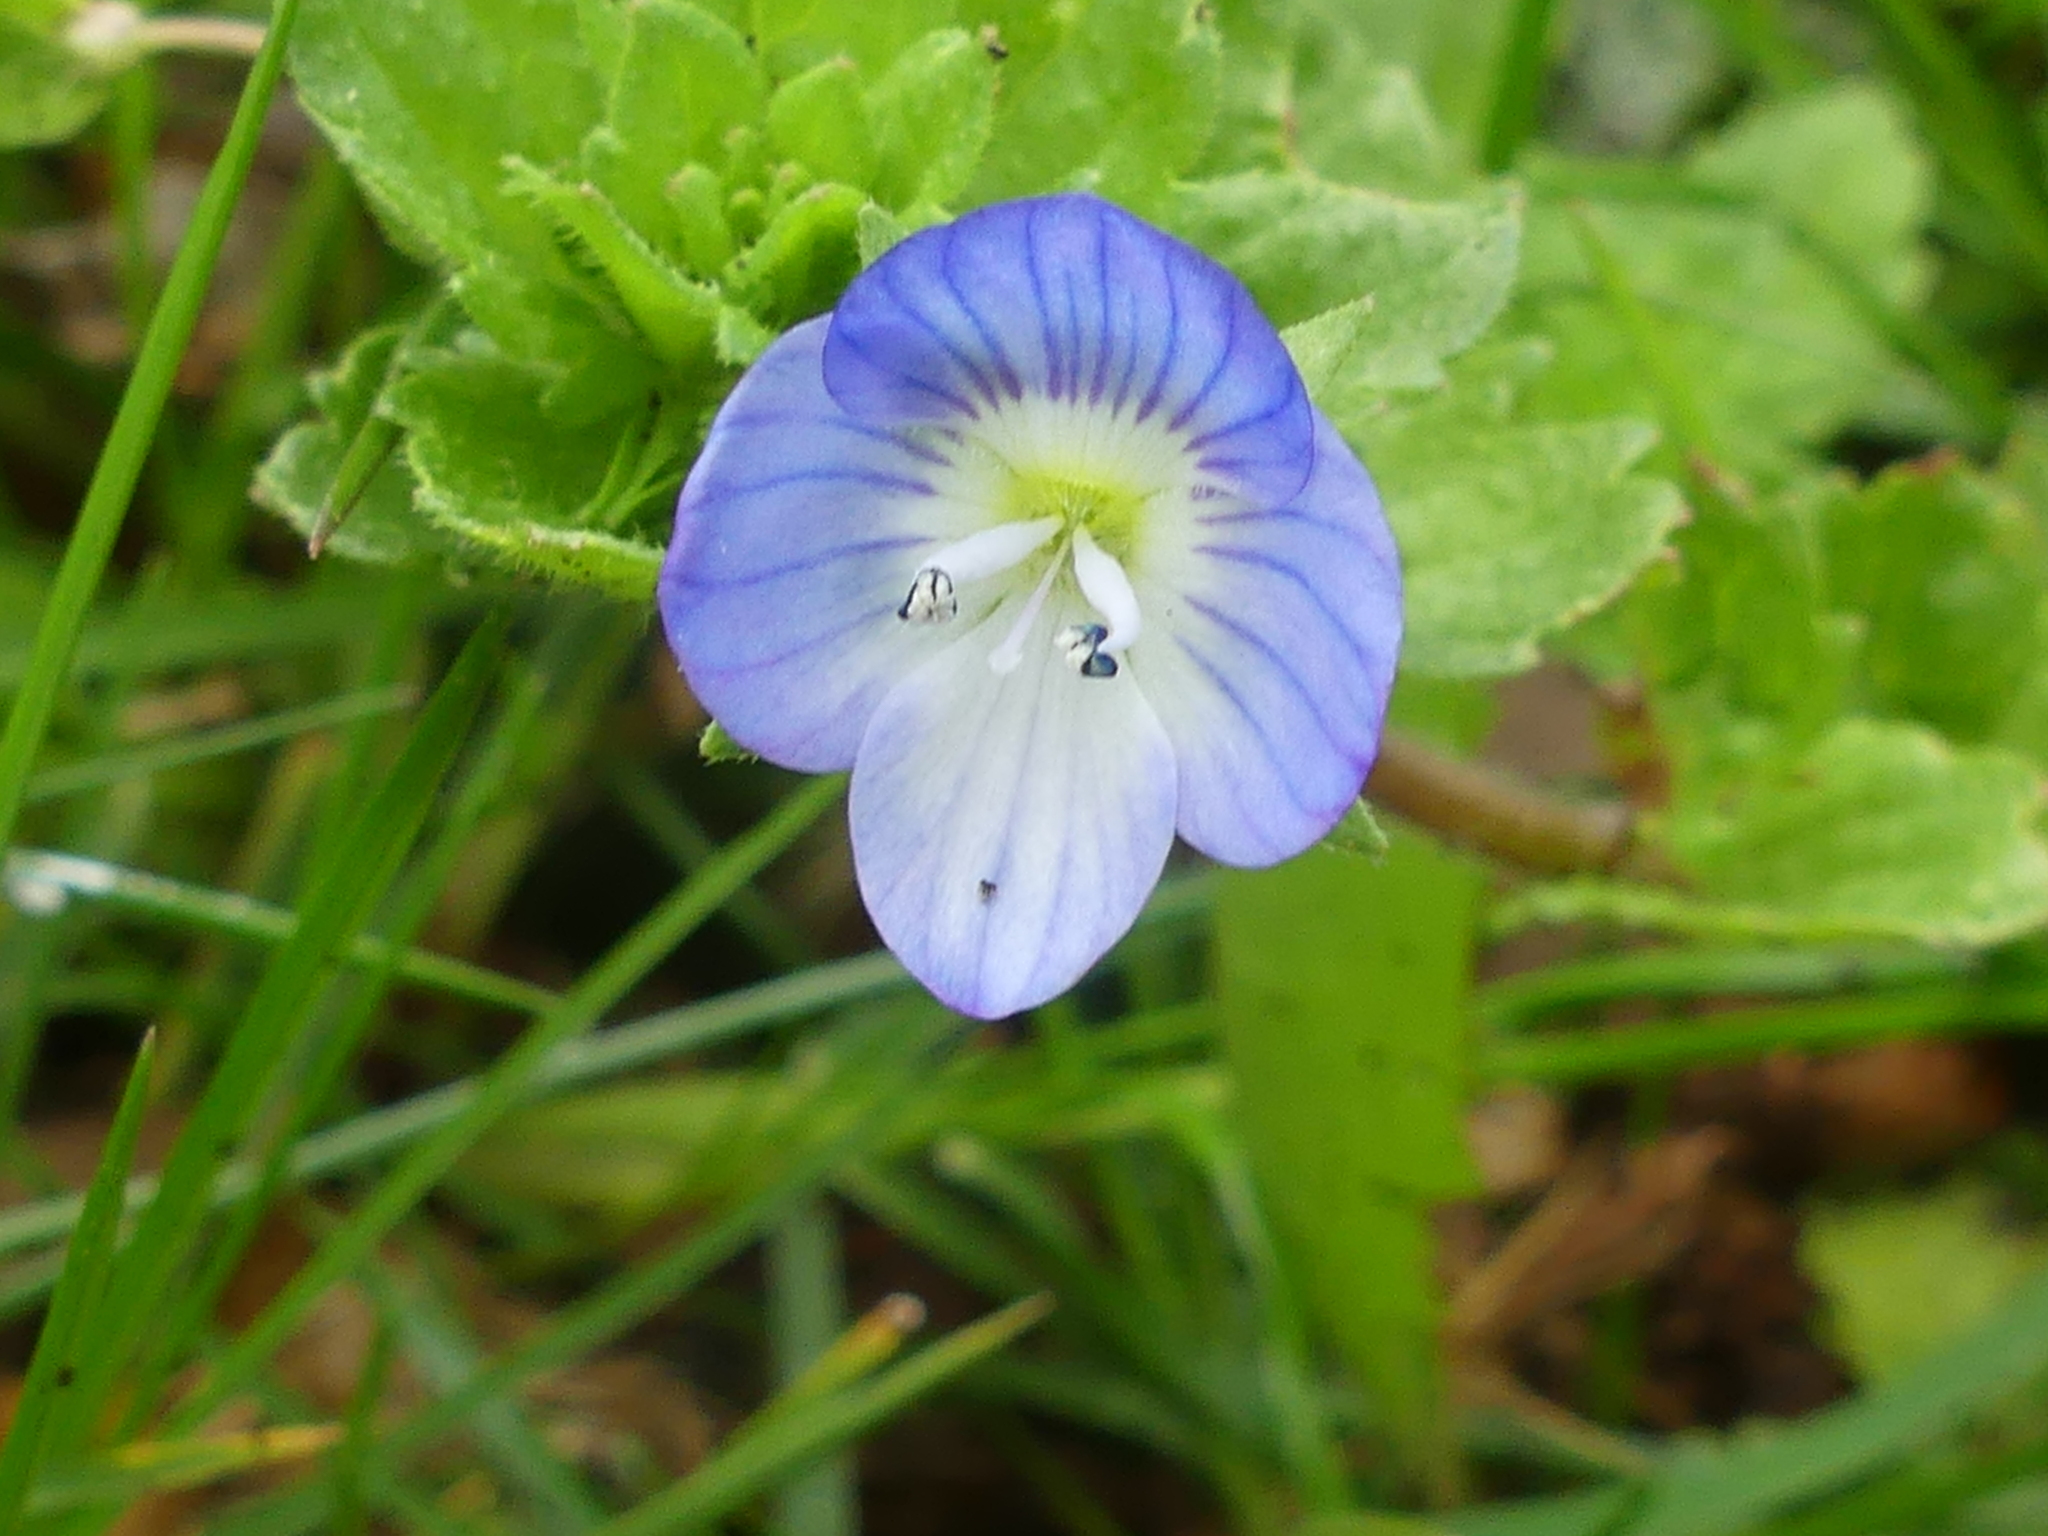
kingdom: Plantae
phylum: Tracheophyta
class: Magnoliopsida
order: Lamiales
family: Plantaginaceae
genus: Veronica
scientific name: Veronica persica
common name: Common field-speedwell
